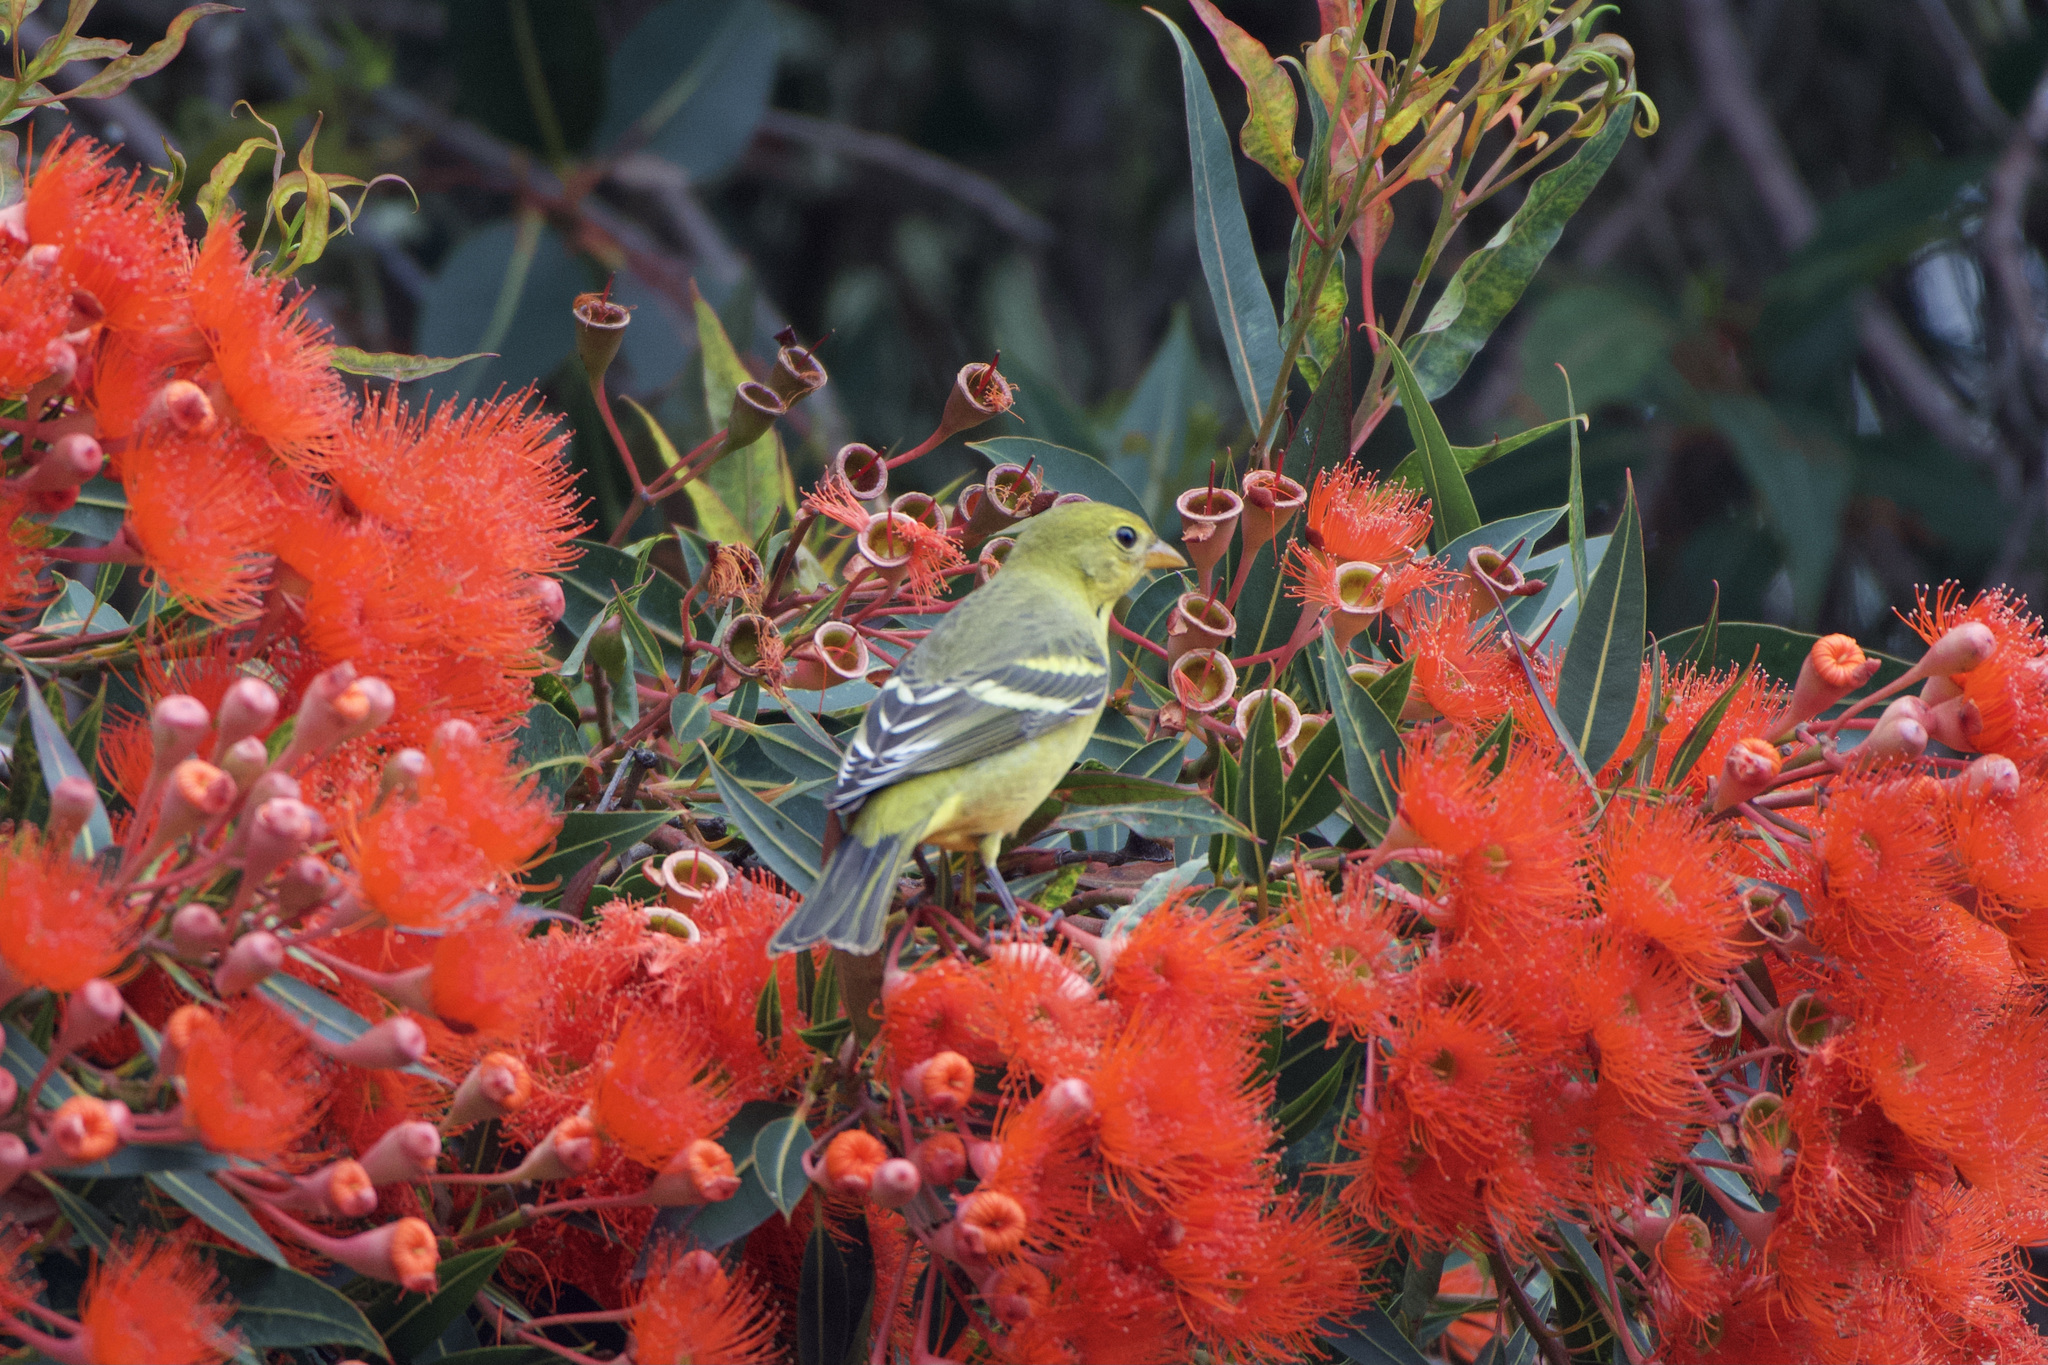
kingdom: Animalia
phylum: Chordata
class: Aves
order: Passeriformes
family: Cardinalidae
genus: Piranga
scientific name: Piranga ludoviciana
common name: Western tanager
